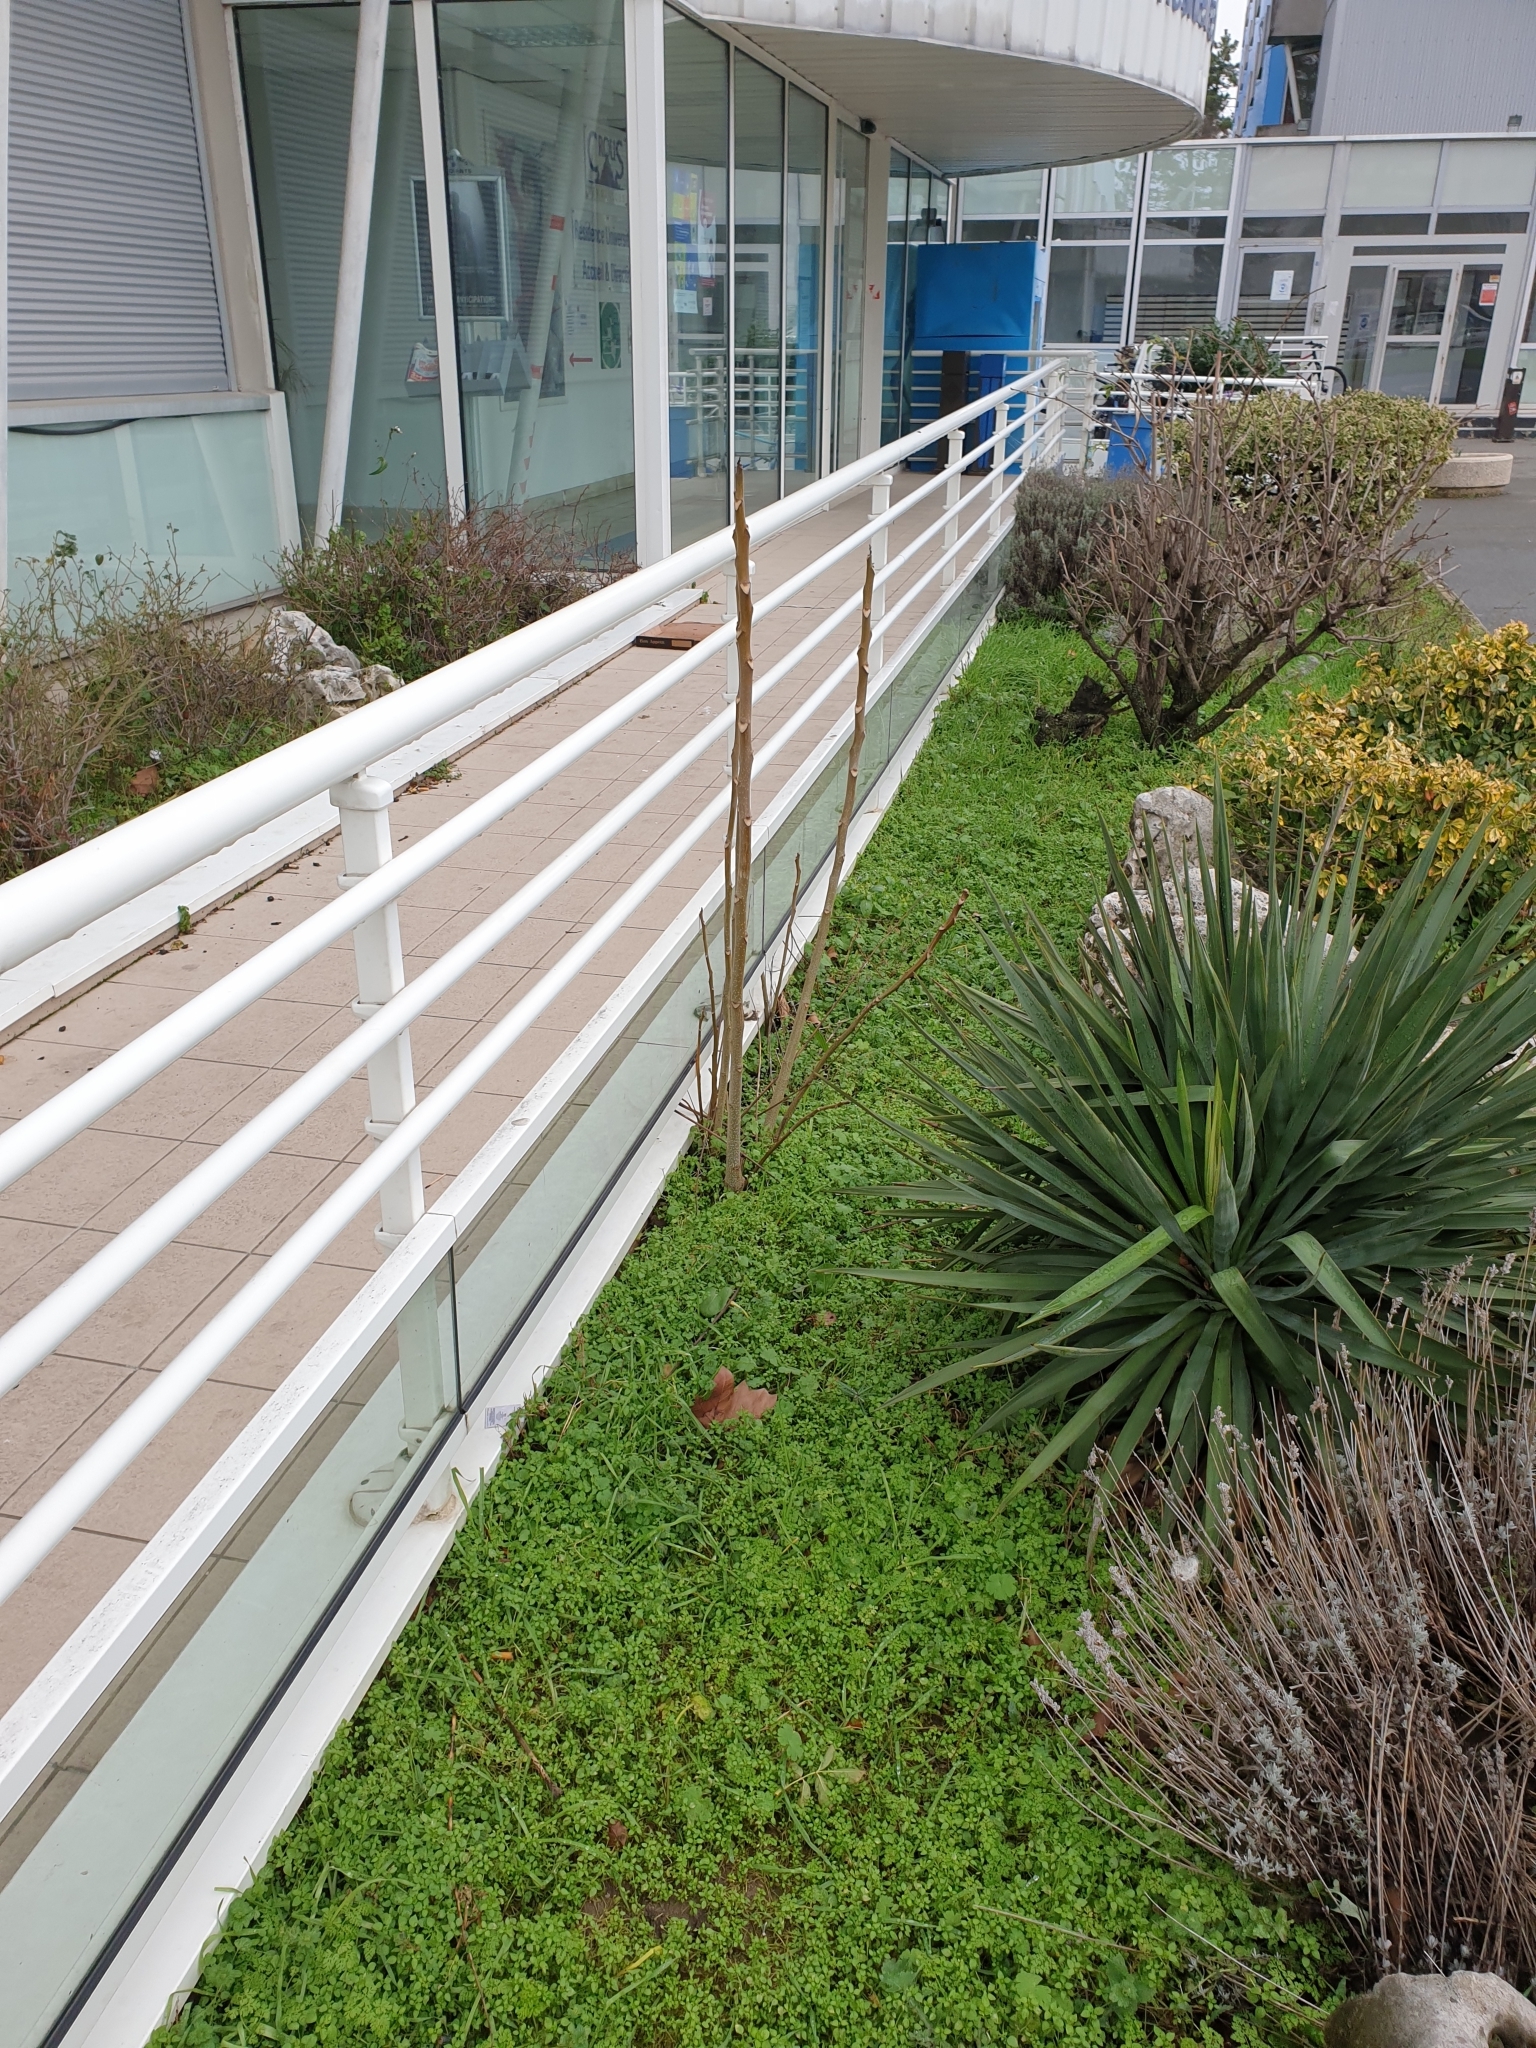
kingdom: Plantae
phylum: Tracheophyta
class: Magnoliopsida
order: Sapindales
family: Simaroubaceae
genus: Ailanthus
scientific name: Ailanthus altissima
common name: Tree-of-heaven
